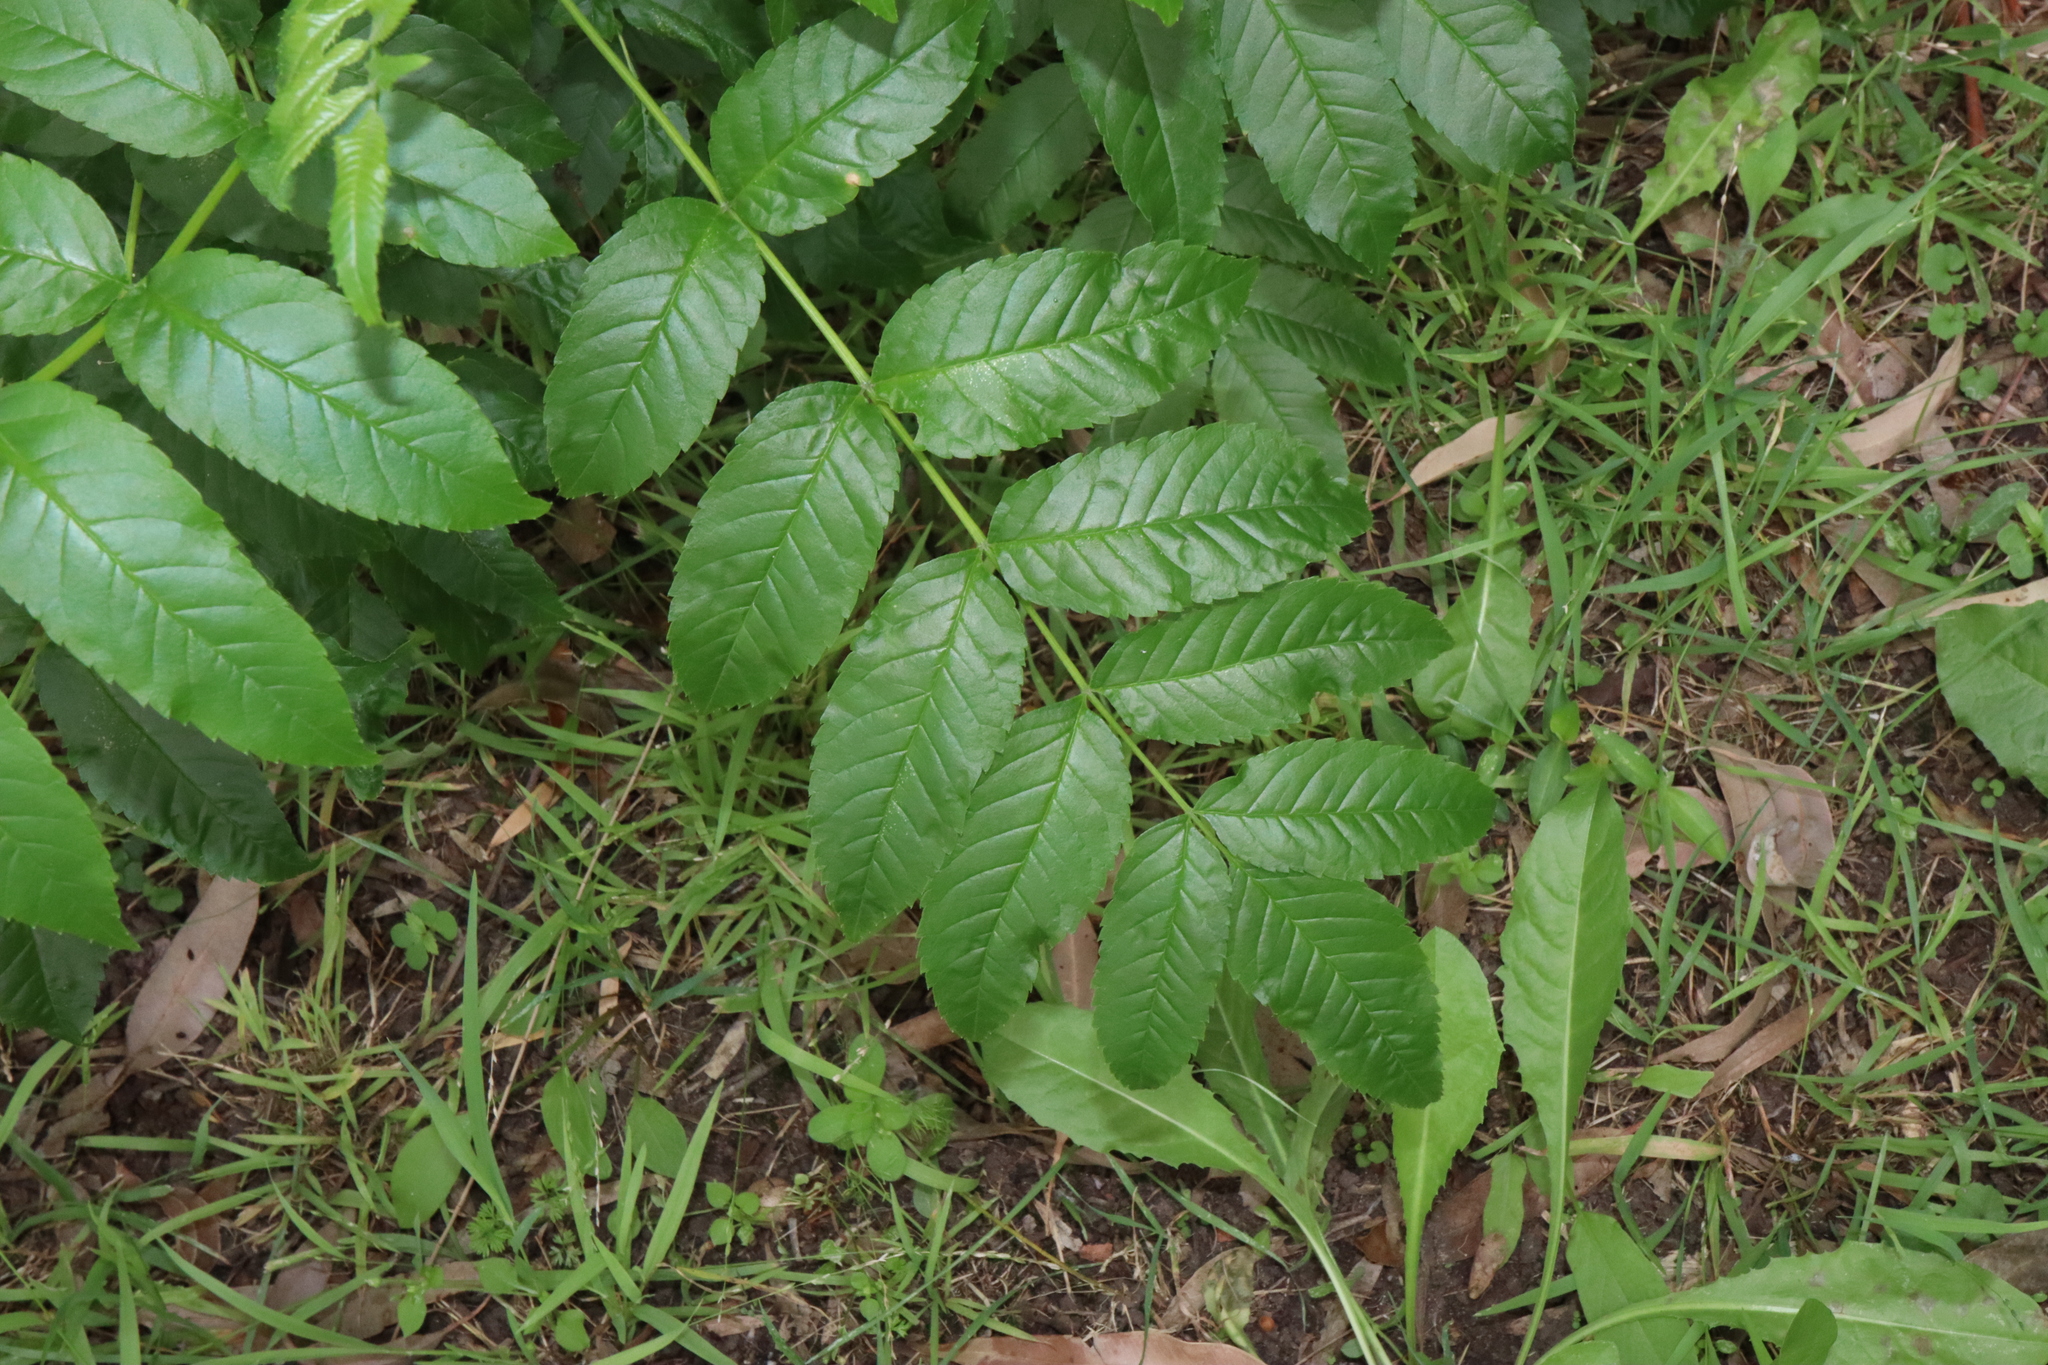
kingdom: Plantae
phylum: Tracheophyta
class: Magnoliopsida
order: Lamiales
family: Bignoniaceae
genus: Tecoma
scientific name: Tecoma stans
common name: Yellow trumpetbush
